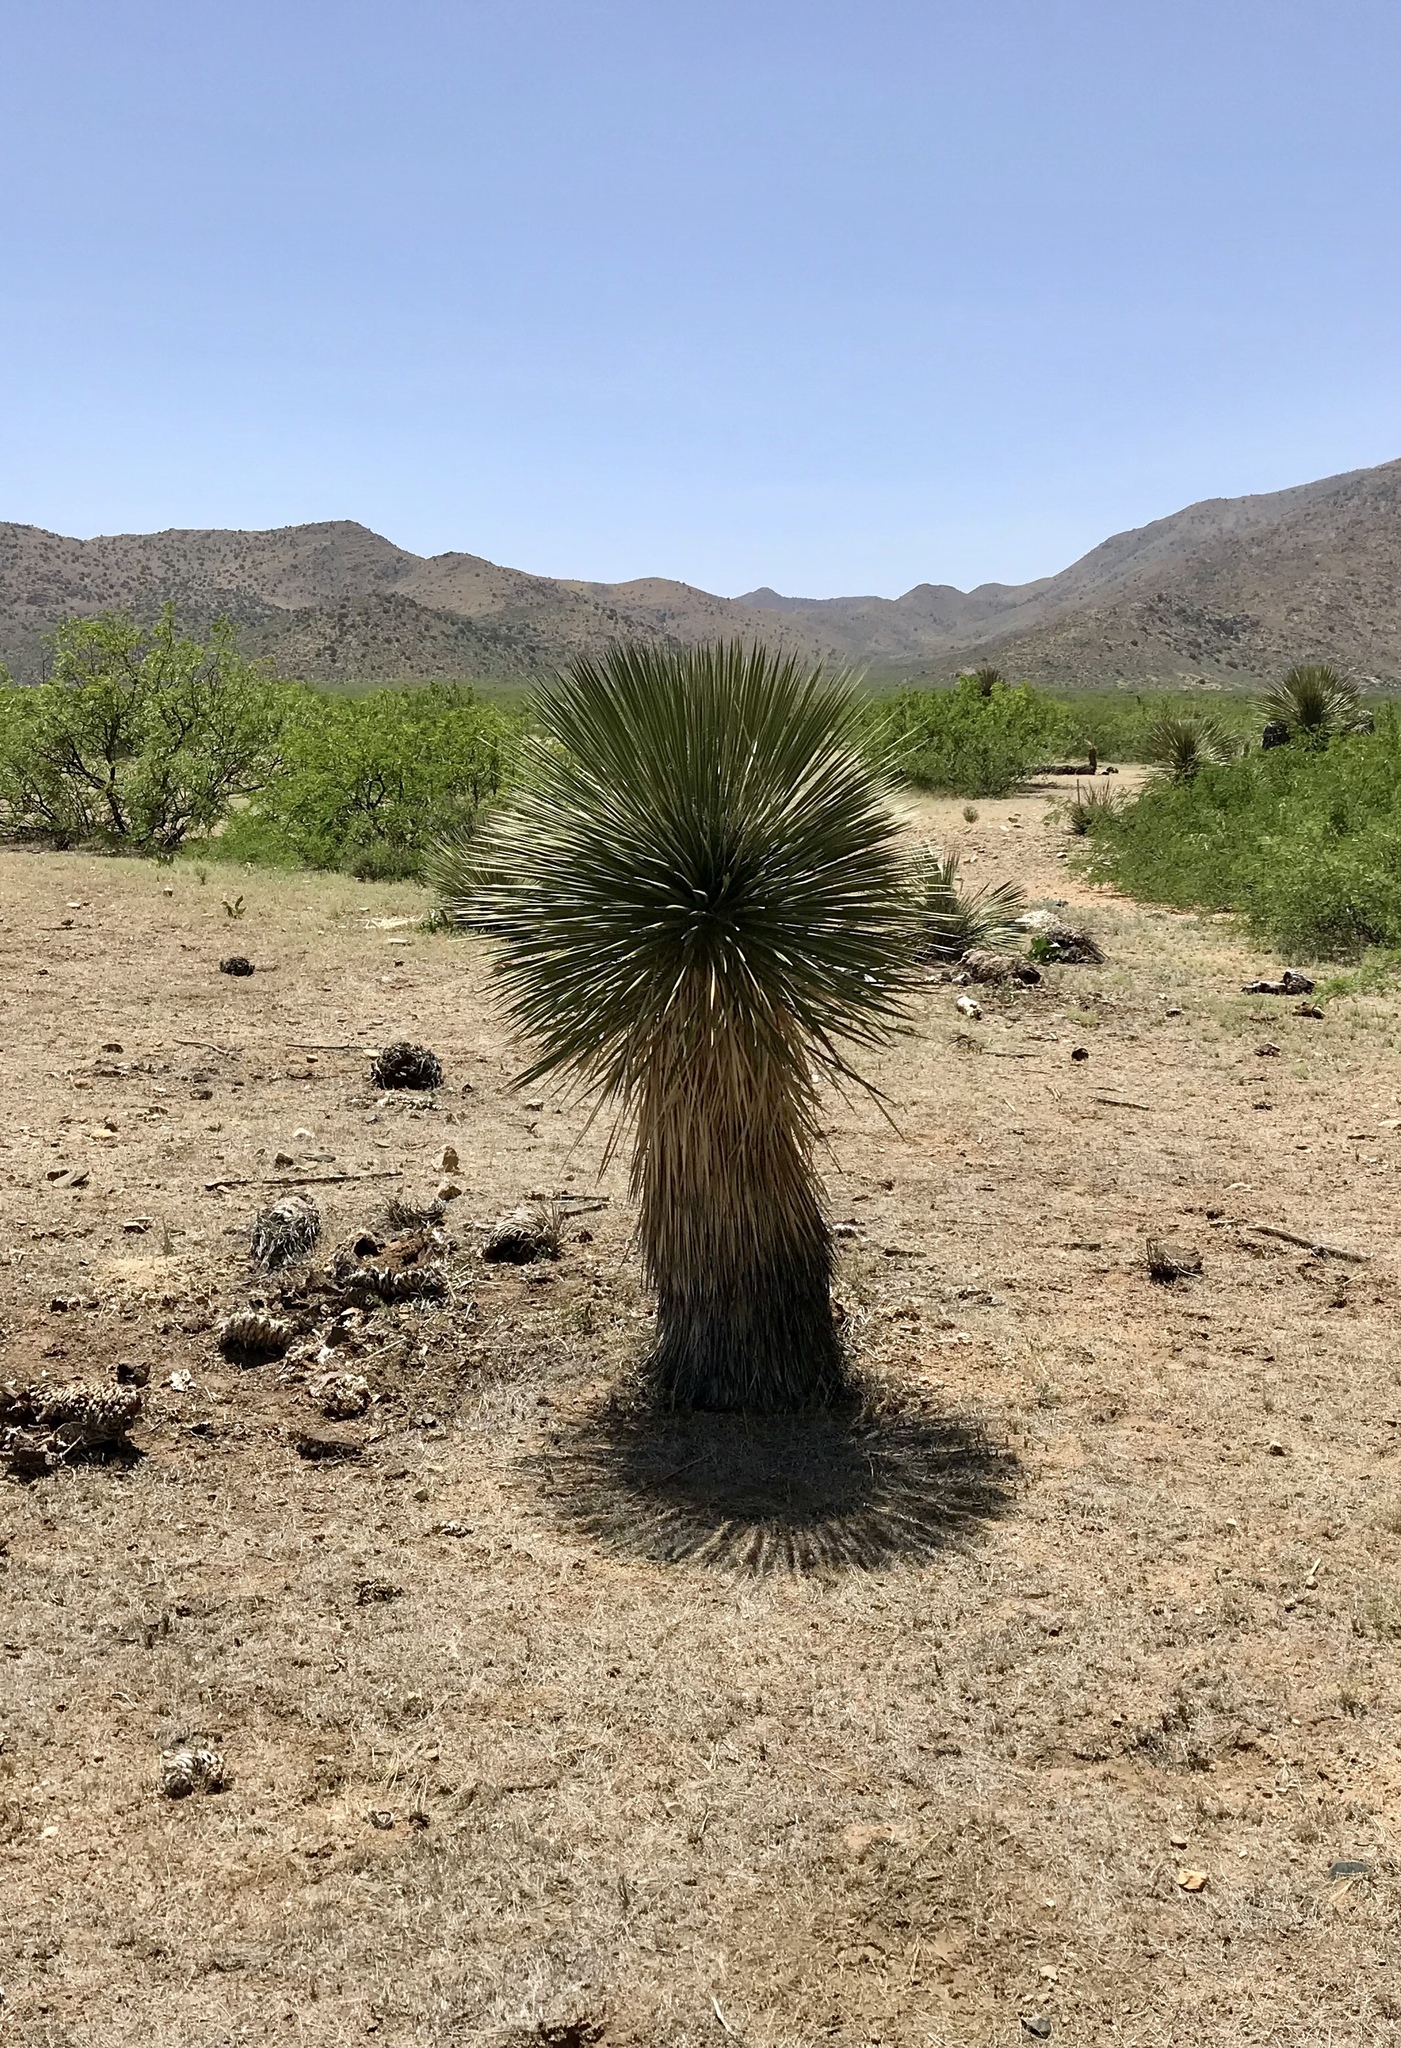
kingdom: Plantae
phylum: Tracheophyta
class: Liliopsida
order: Asparagales
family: Asparagaceae
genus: Yucca
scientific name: Yucca elata
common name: Palmella
